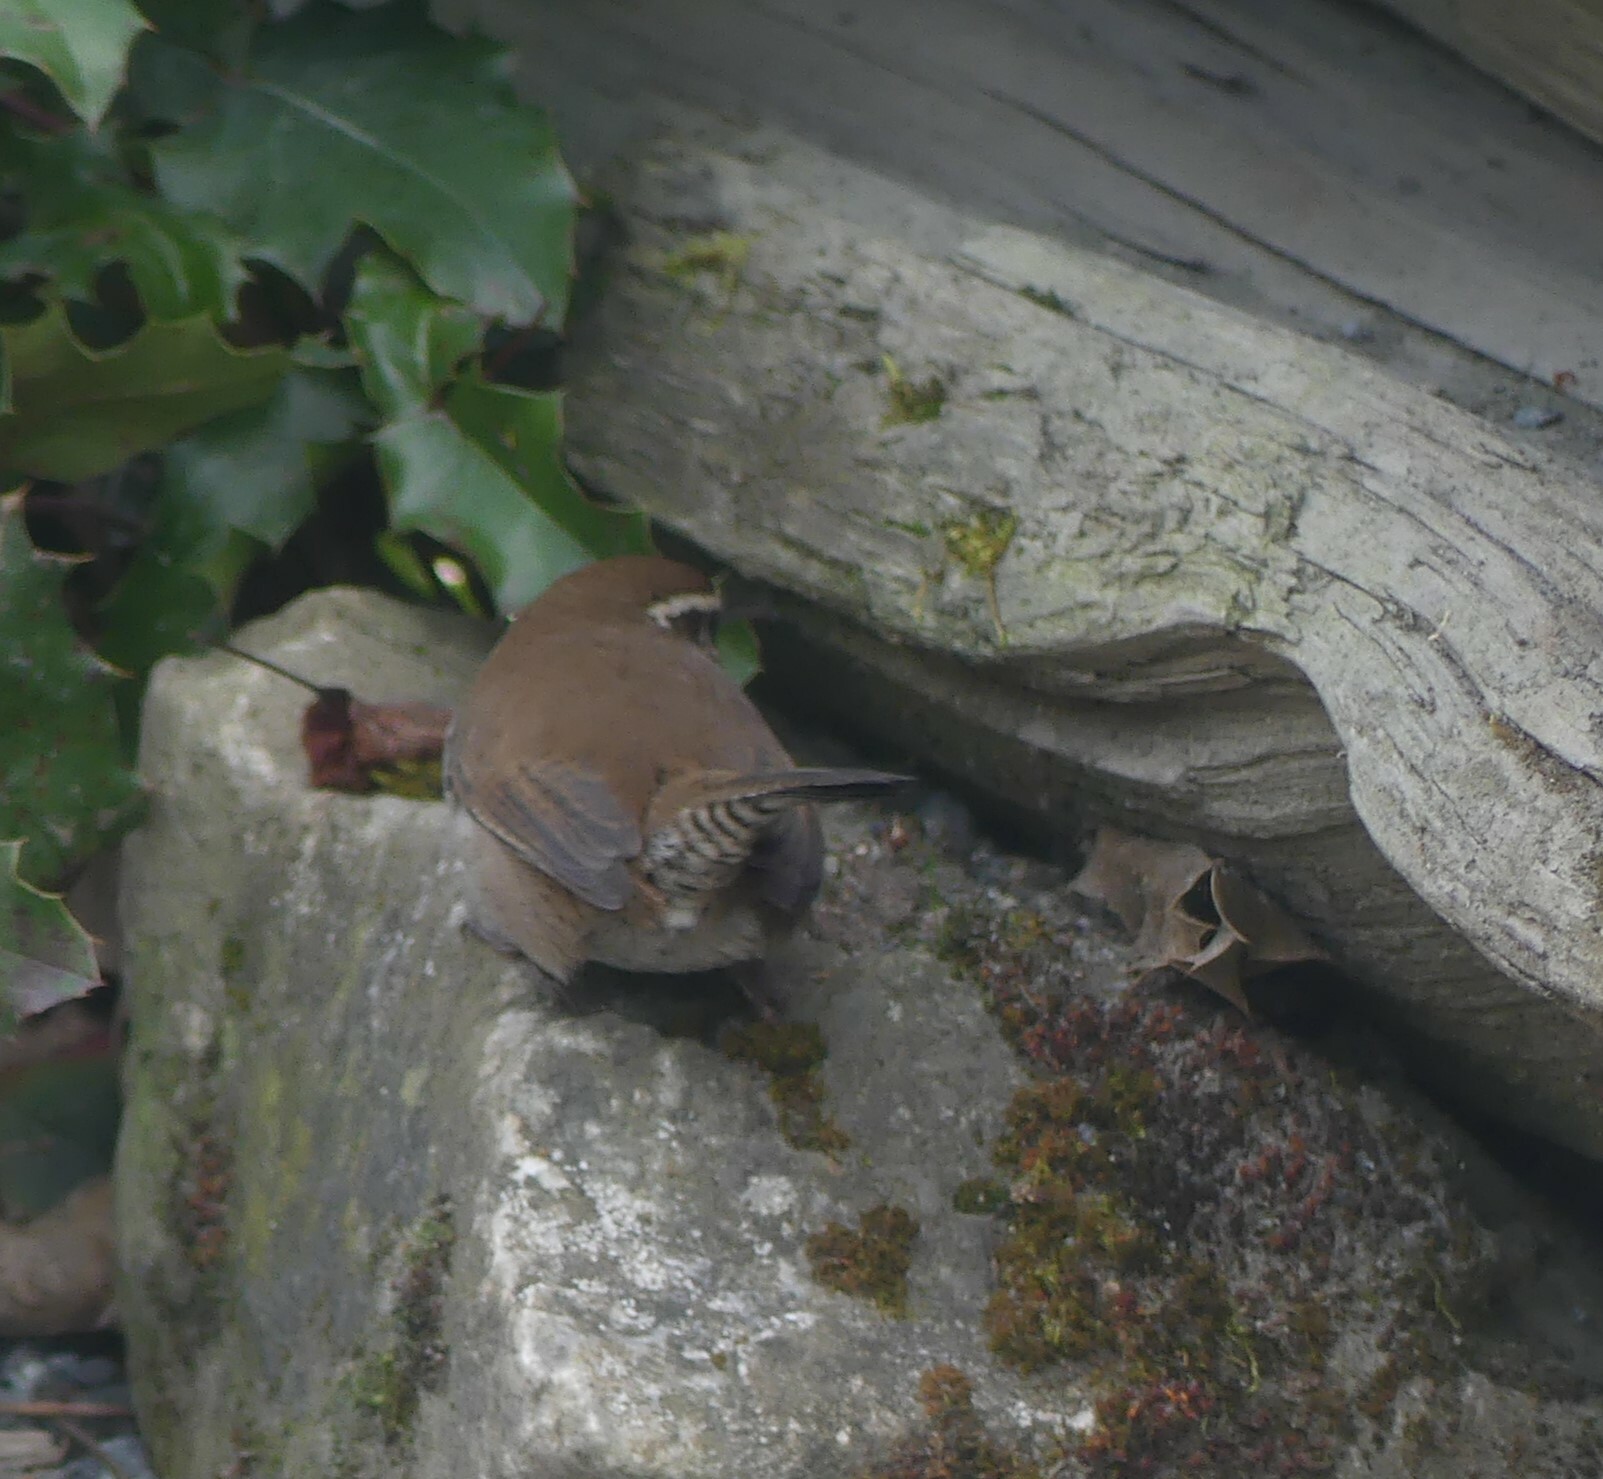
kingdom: Animalia
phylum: Chordata
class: Aves
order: Passeriformes
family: Troglodytidae
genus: Thryomanes
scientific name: Thryomanes bewickii
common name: Bewick's wren
